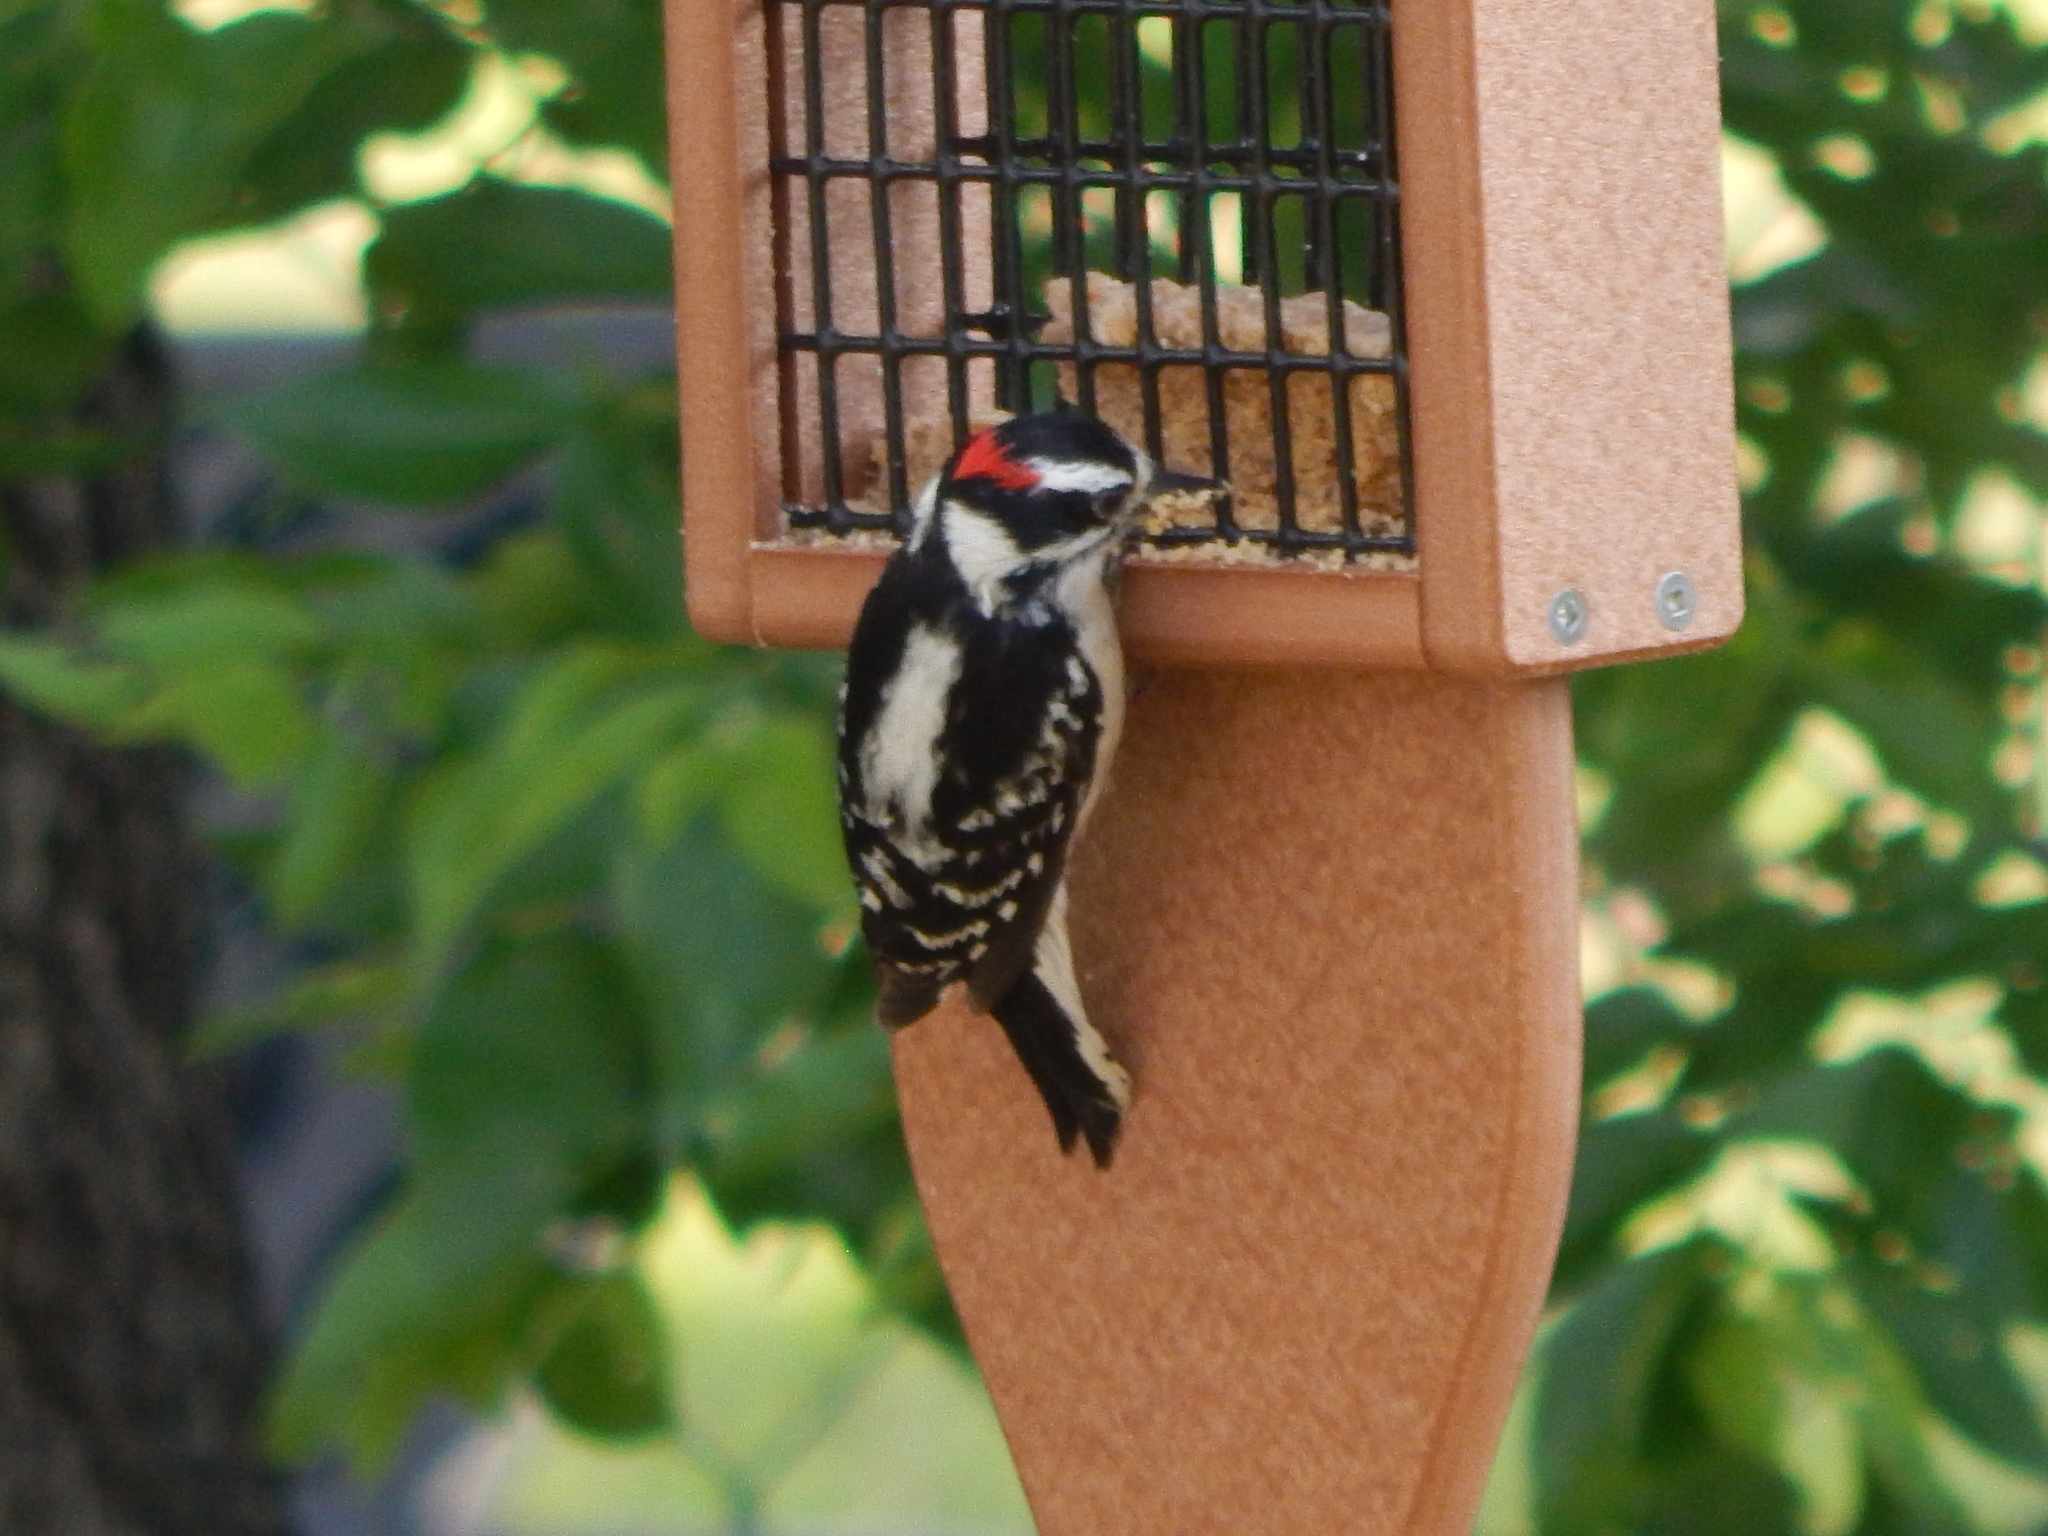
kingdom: Animalia
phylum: Chordata
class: Aves
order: Piciformes
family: Picidae
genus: Dryobates
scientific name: Dryobates pubescens
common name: Downy woodpecker
